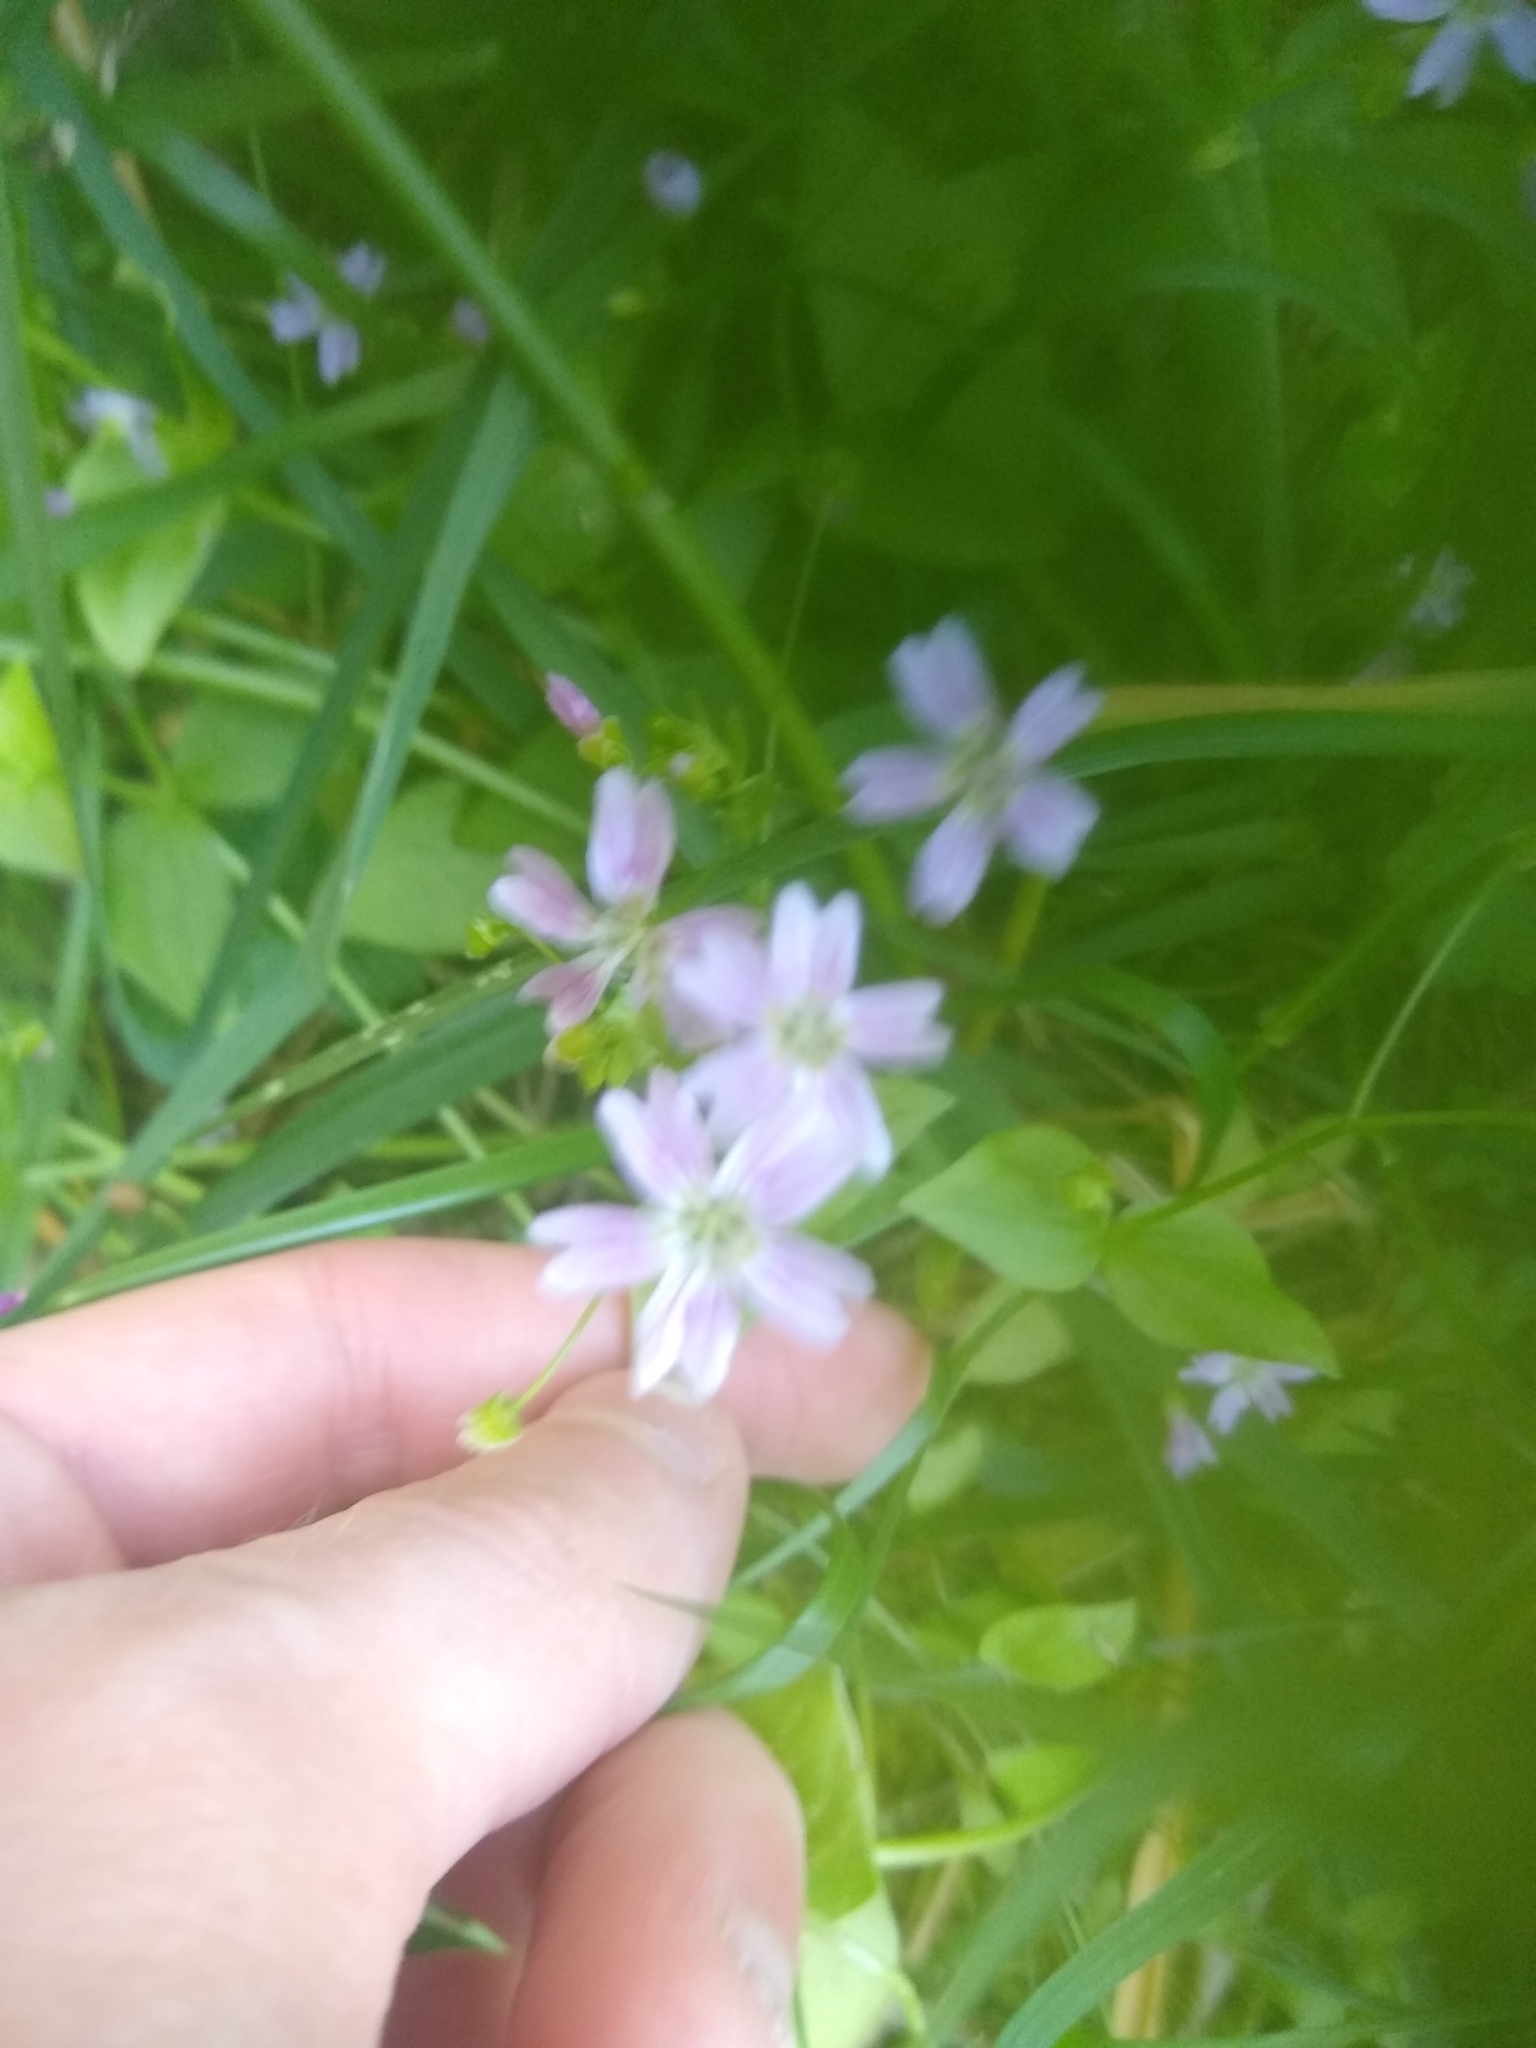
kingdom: Plantae
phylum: Tracheophyta
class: Magnoliopsida
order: Caryophyllales
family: Montiaceae
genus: Claytonia
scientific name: Claytonia sibirica
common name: Pink purslane
